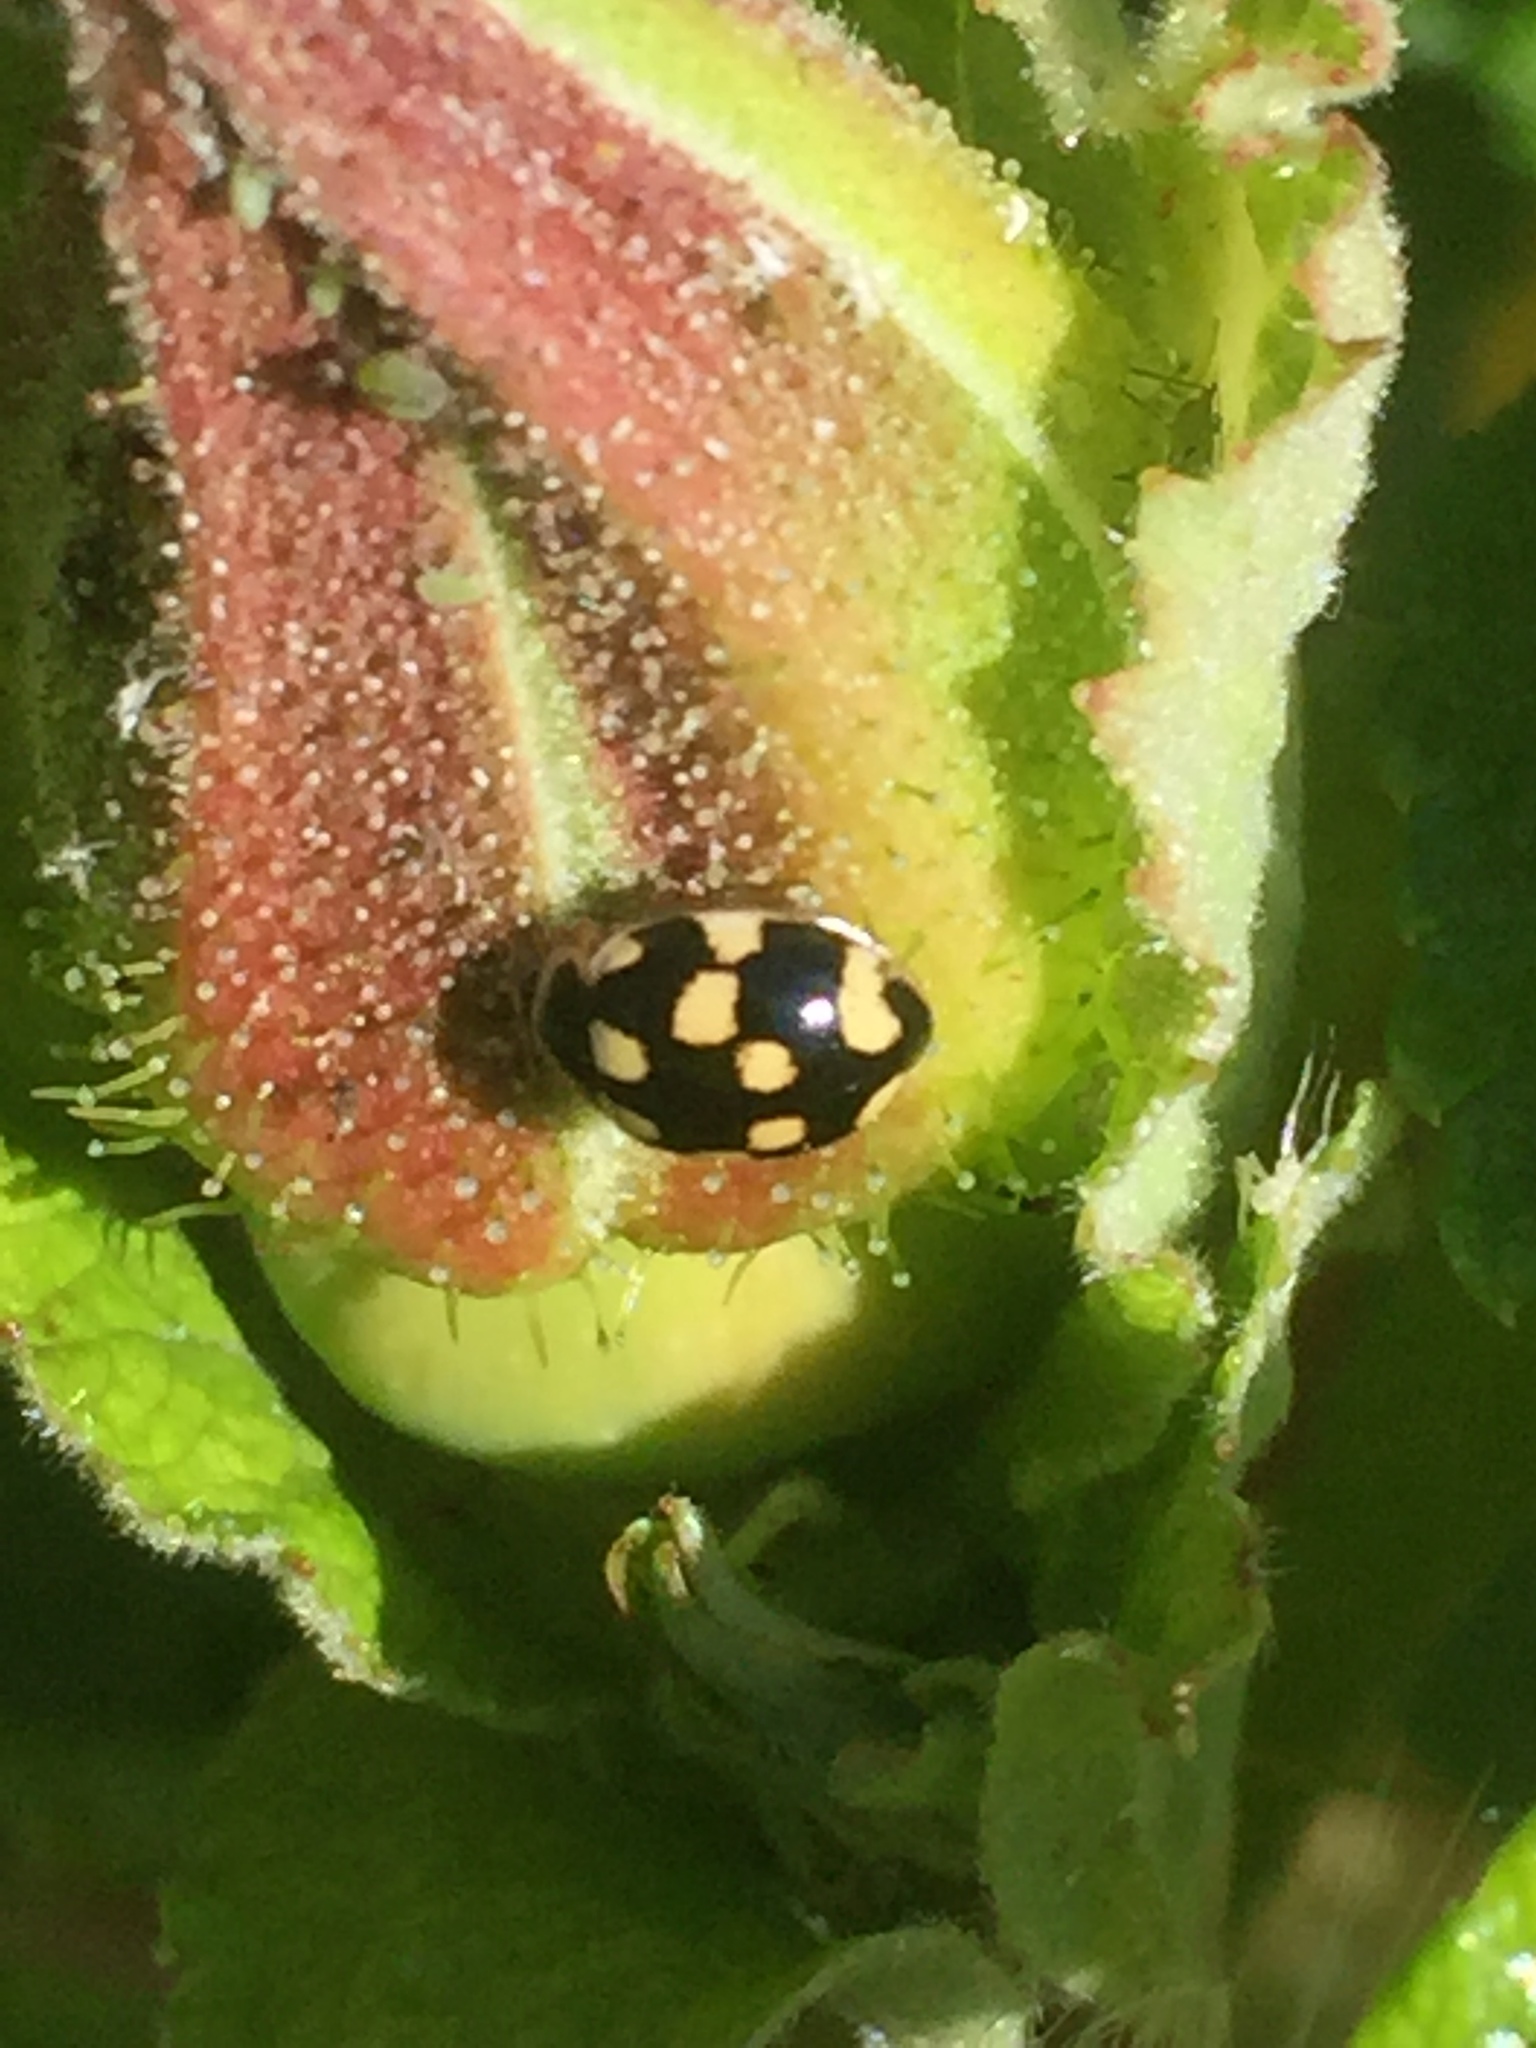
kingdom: Animalia
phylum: Arthropoda
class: Insecta
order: Coleoptera
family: Coccinellidae
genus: Propylaea
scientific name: Propylaea quatuordecimpunctata
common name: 14-spotted ladybird beetle
